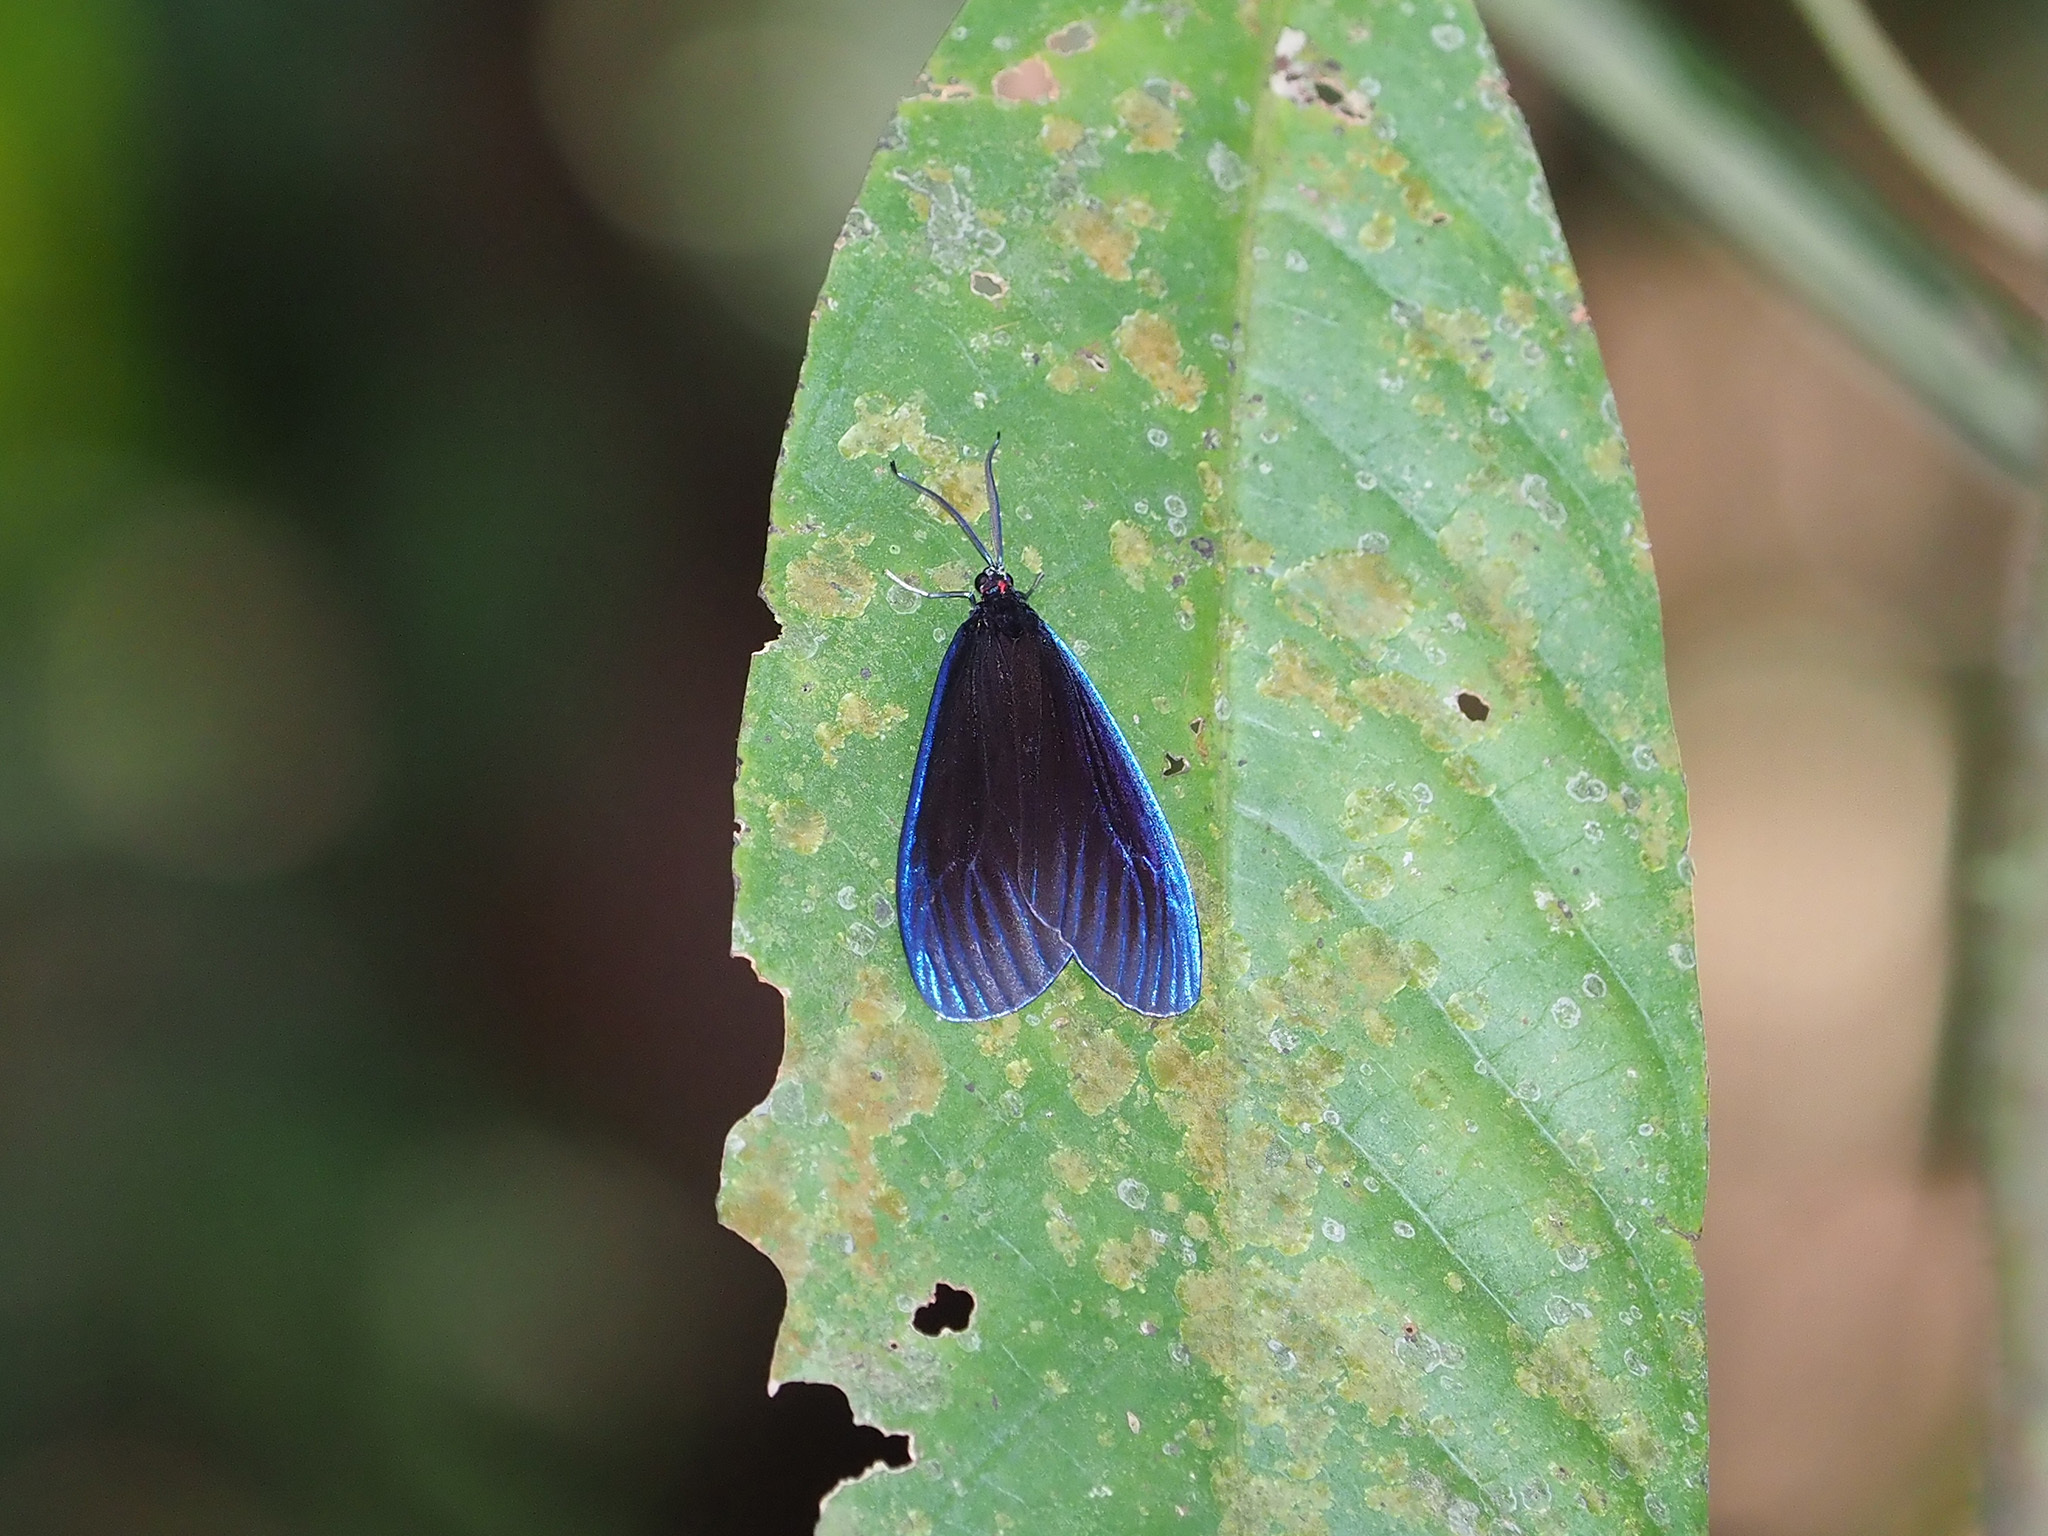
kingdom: Animalia
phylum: Arthropoda
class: Insecta
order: Lepidoptera
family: Zygaenidae
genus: Pompelon
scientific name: Pompelon marginata
